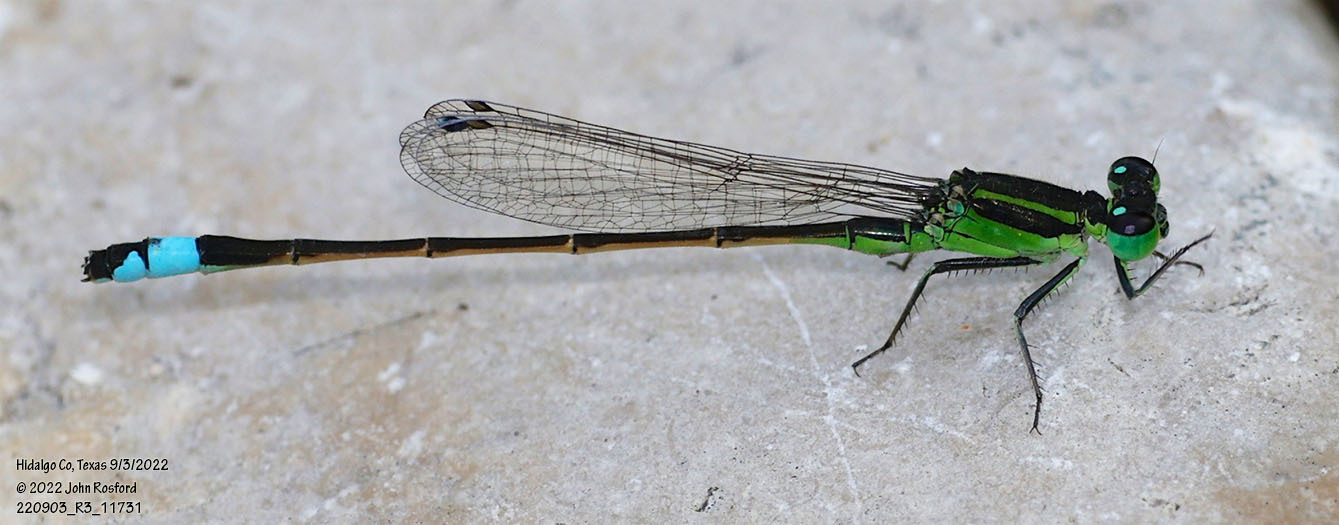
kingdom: Animalia
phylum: Arthropoda
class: Insecta
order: Odonata
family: Coenagrionidae
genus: Ischnura
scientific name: Ischnura ramburii
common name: Rambur's forktail
